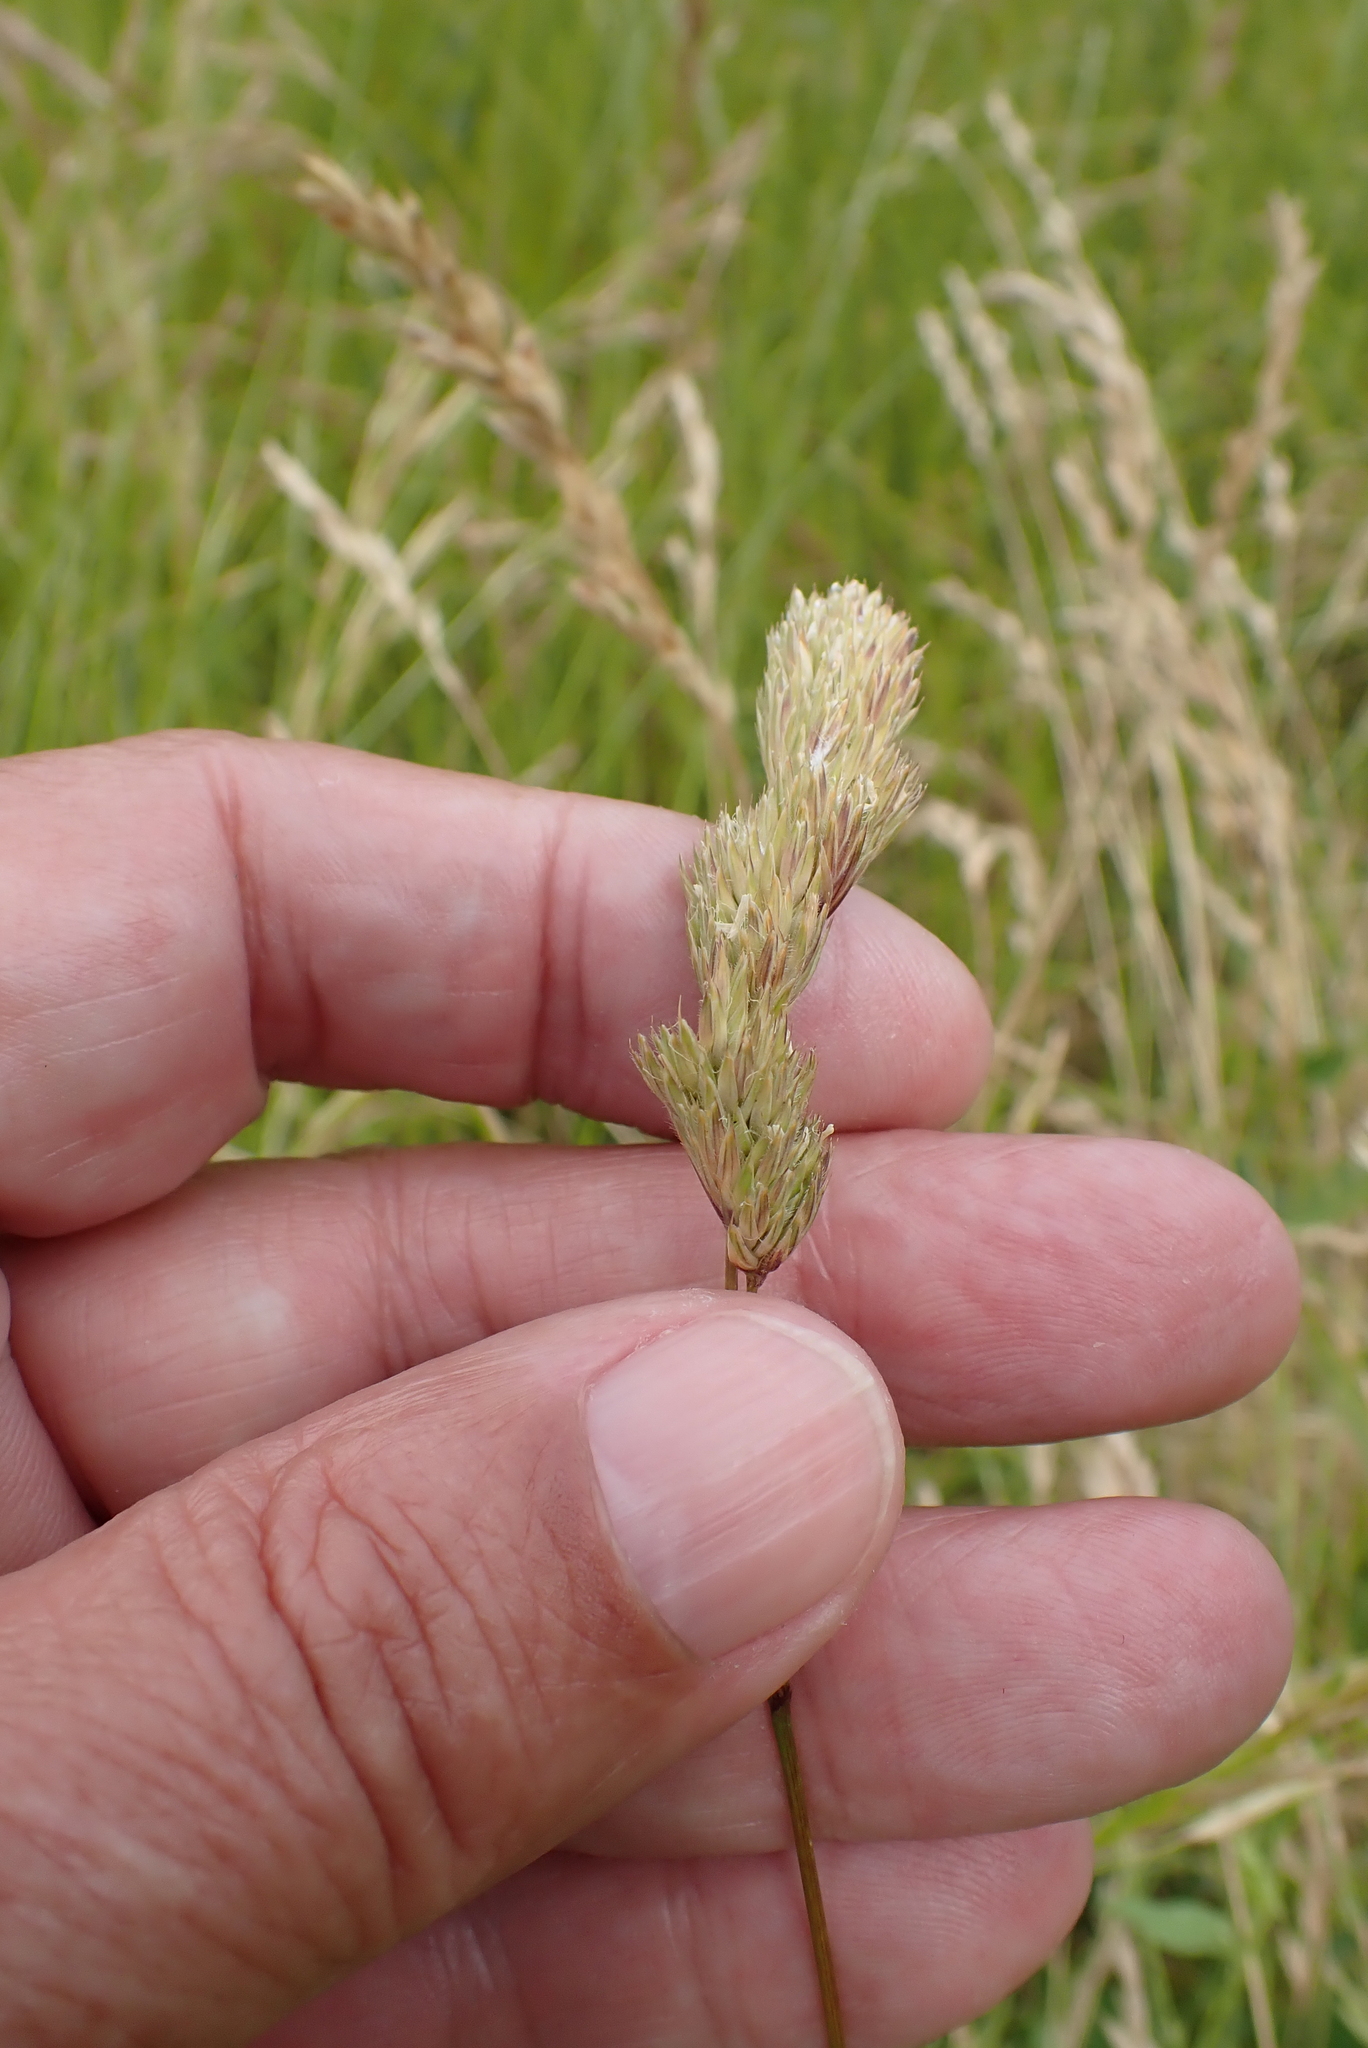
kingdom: Plantae
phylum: Tracheophyta
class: Liliopsida
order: Poales
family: Poaceae
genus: Dactylis
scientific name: Dactylis glomerata
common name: Orchardgrass
